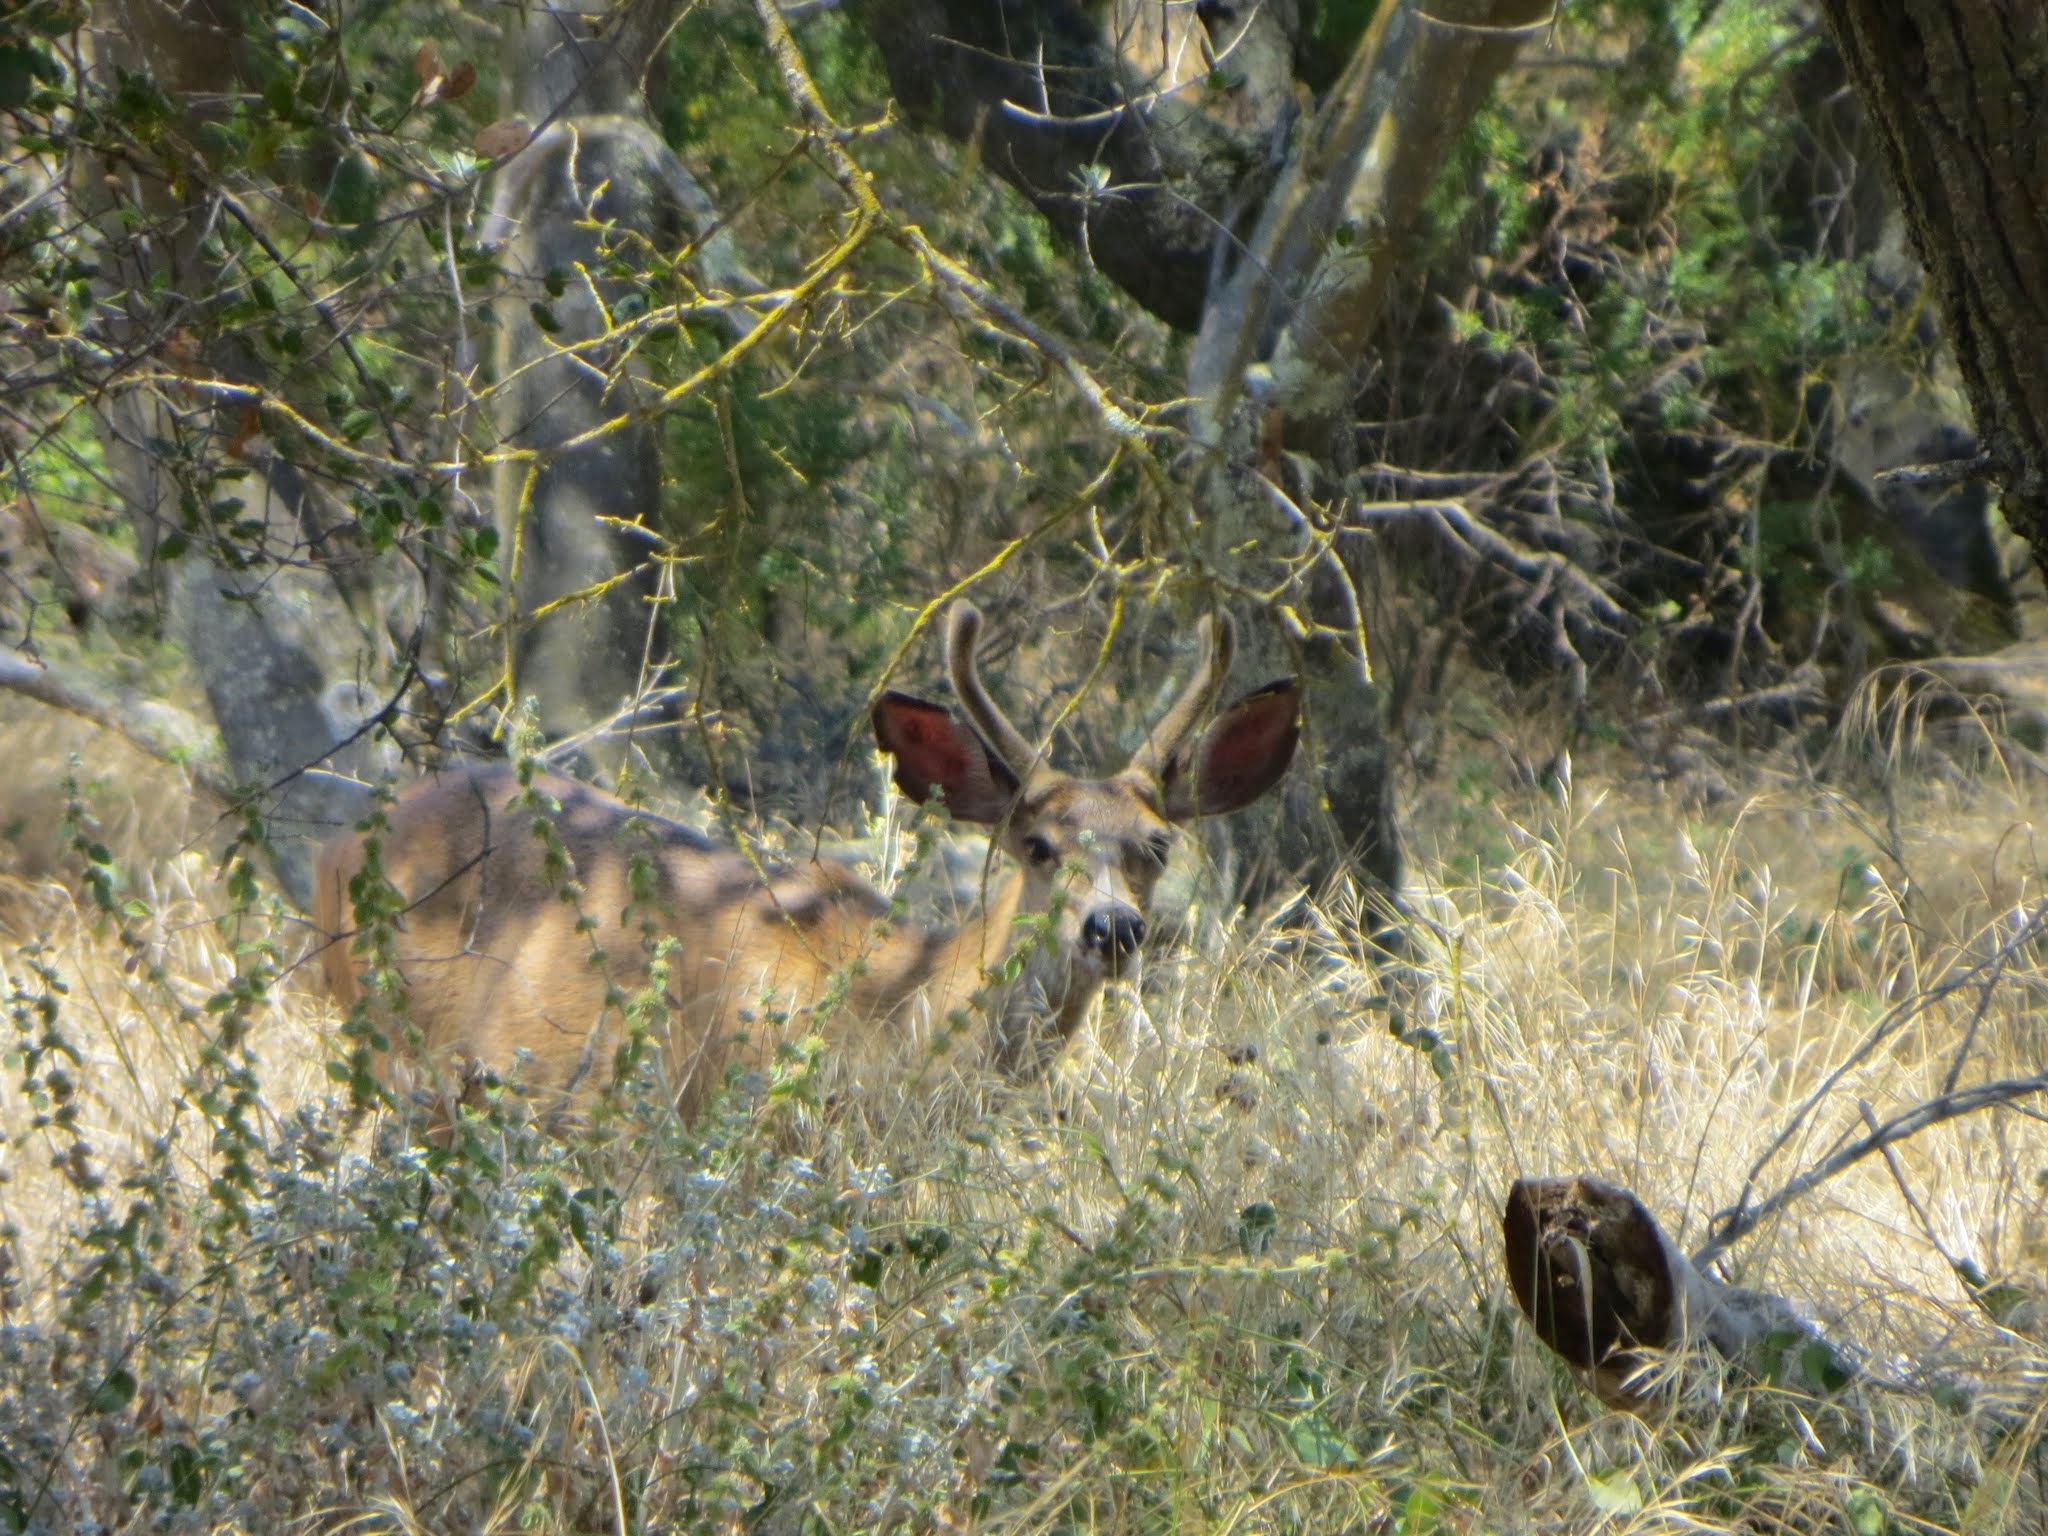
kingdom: Animalia
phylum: Chordata
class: Mammalia
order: Artiodactyla
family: Cervidae
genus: Odocoileus
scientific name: Odocoileus hemionus
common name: Mule deer
